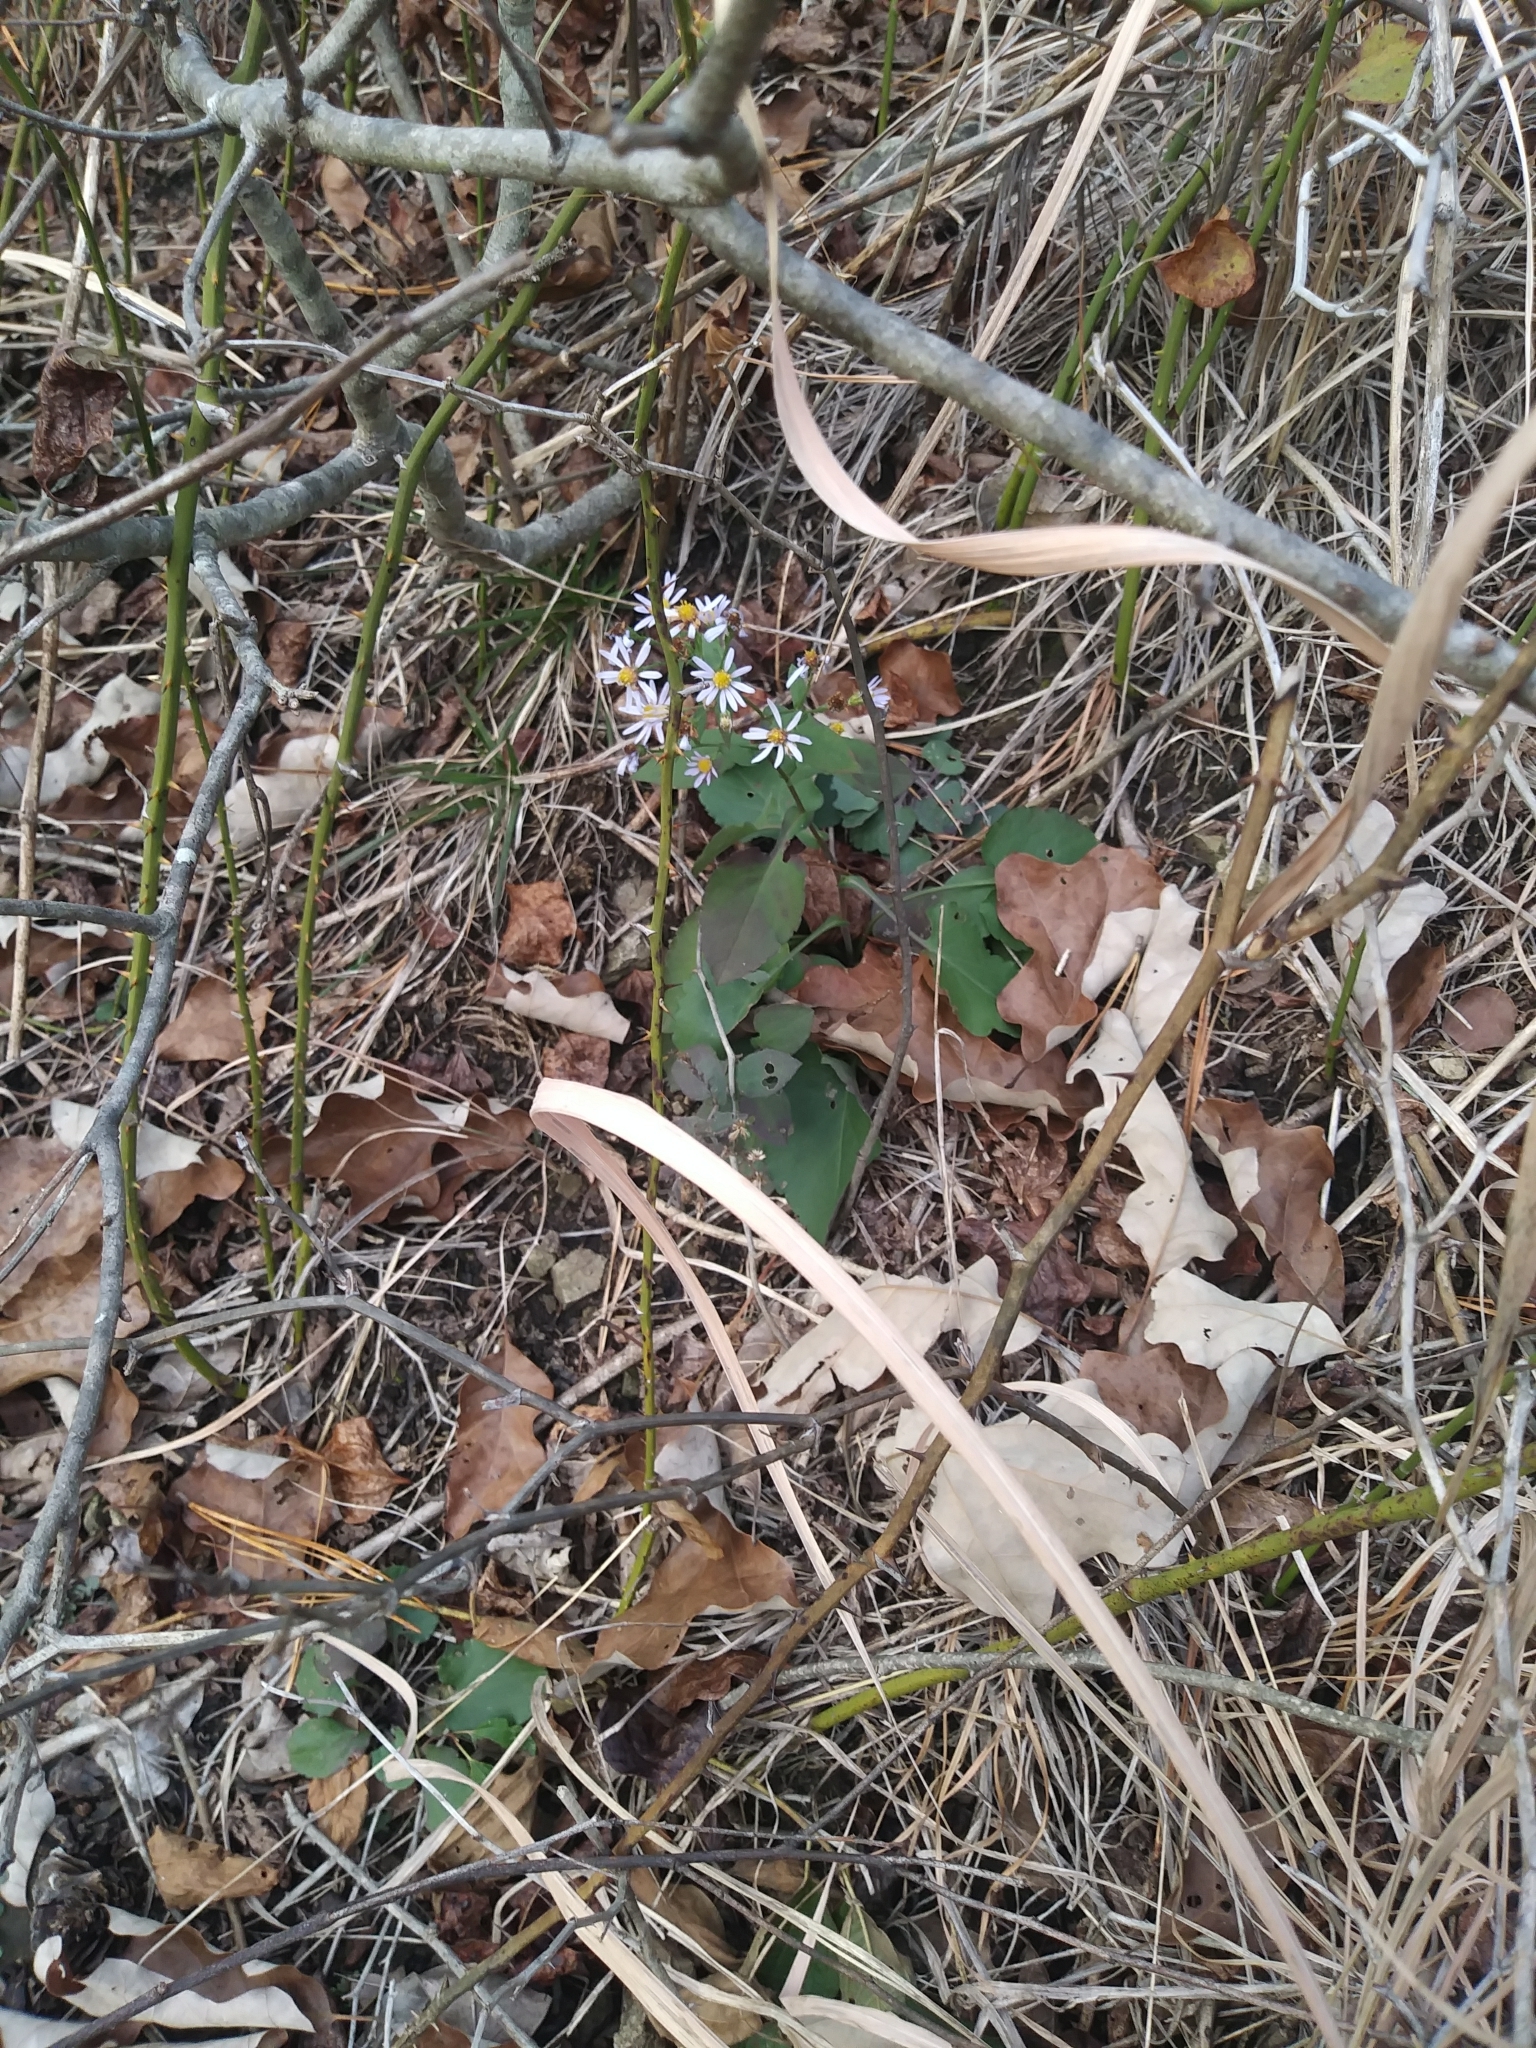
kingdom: Plantae
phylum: Tracheophyta
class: Magnoliopsida
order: Asterales
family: Asteraceae
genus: Symphyotrichum
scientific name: Symphyotrichum undulatum
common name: Clasping heart-leaf aster
